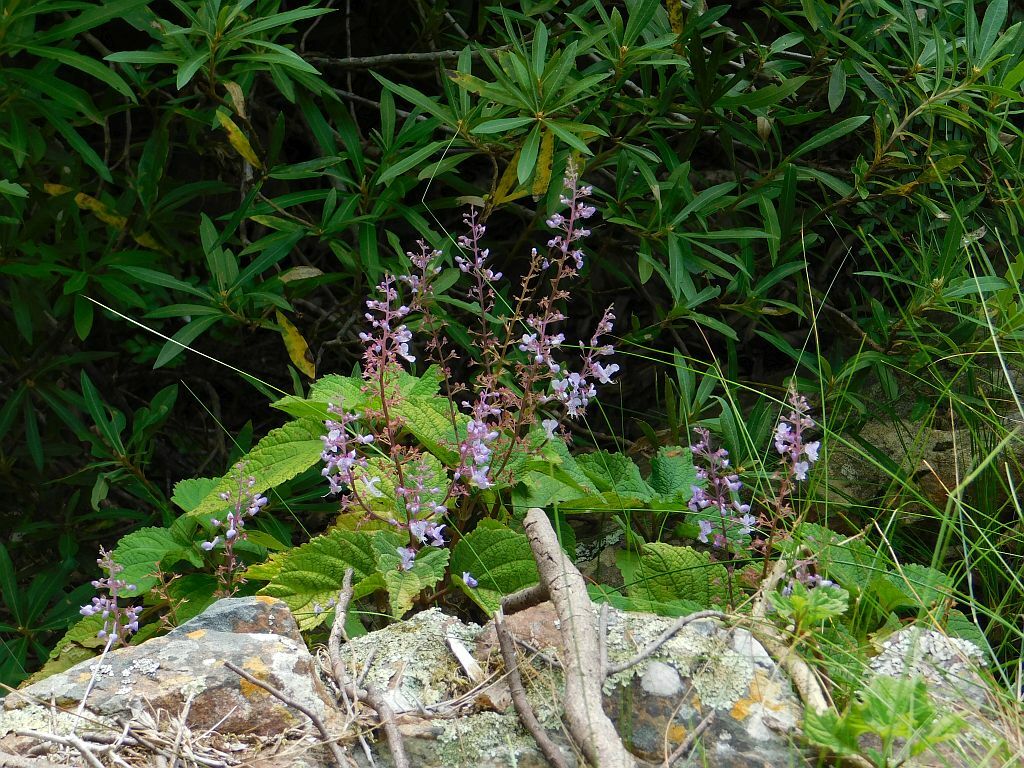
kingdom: Plantae
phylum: Tracheophyta
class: Magnoliopsida
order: Lamiales
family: Lamiaceae
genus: Plectranthus
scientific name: Plectranthus fruticosus
